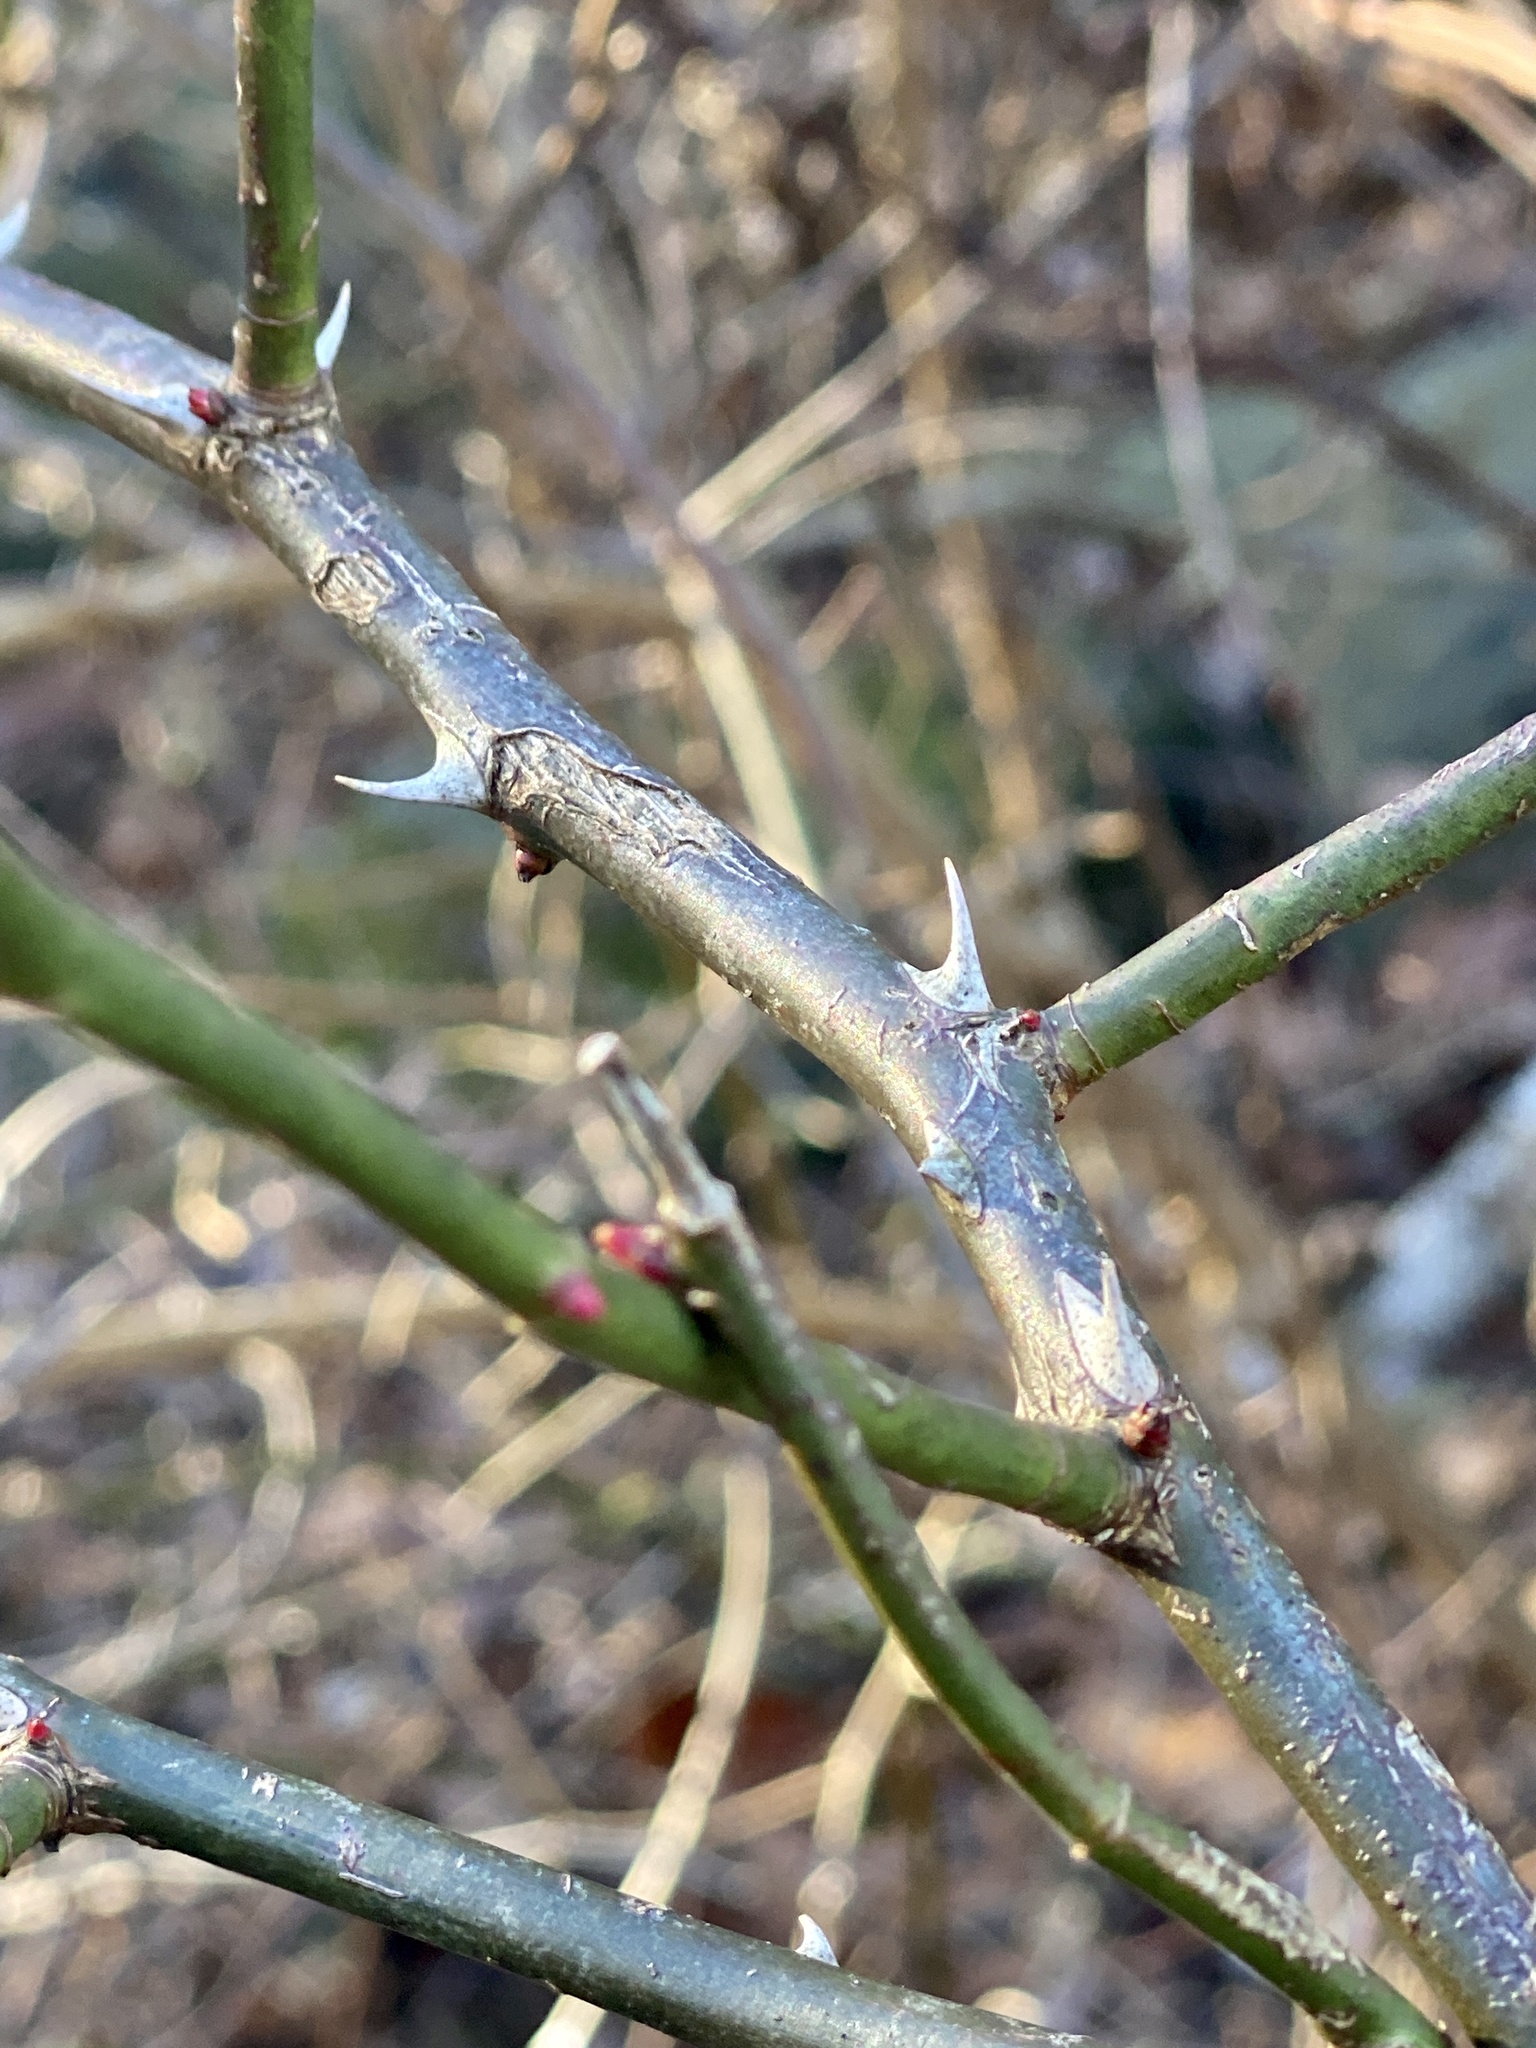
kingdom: Plantae
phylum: Tracheophyta
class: Magnoliopsida
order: Rosales
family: Rosaceae
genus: Rosa
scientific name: Rosa multiflora
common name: Multiflora rose
